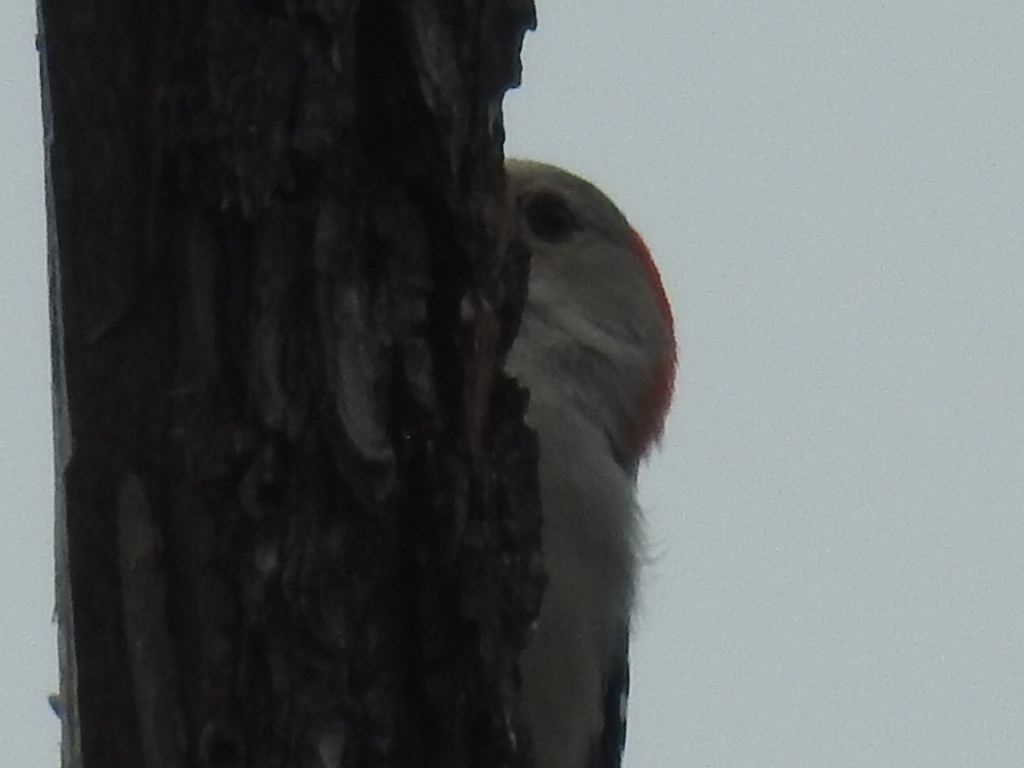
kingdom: Animalia
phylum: Chordata
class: Aves
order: Piciformes
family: Picidae
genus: Melanerpes
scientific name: Melanerpes carolinus
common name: Red-bellied woodpecker
